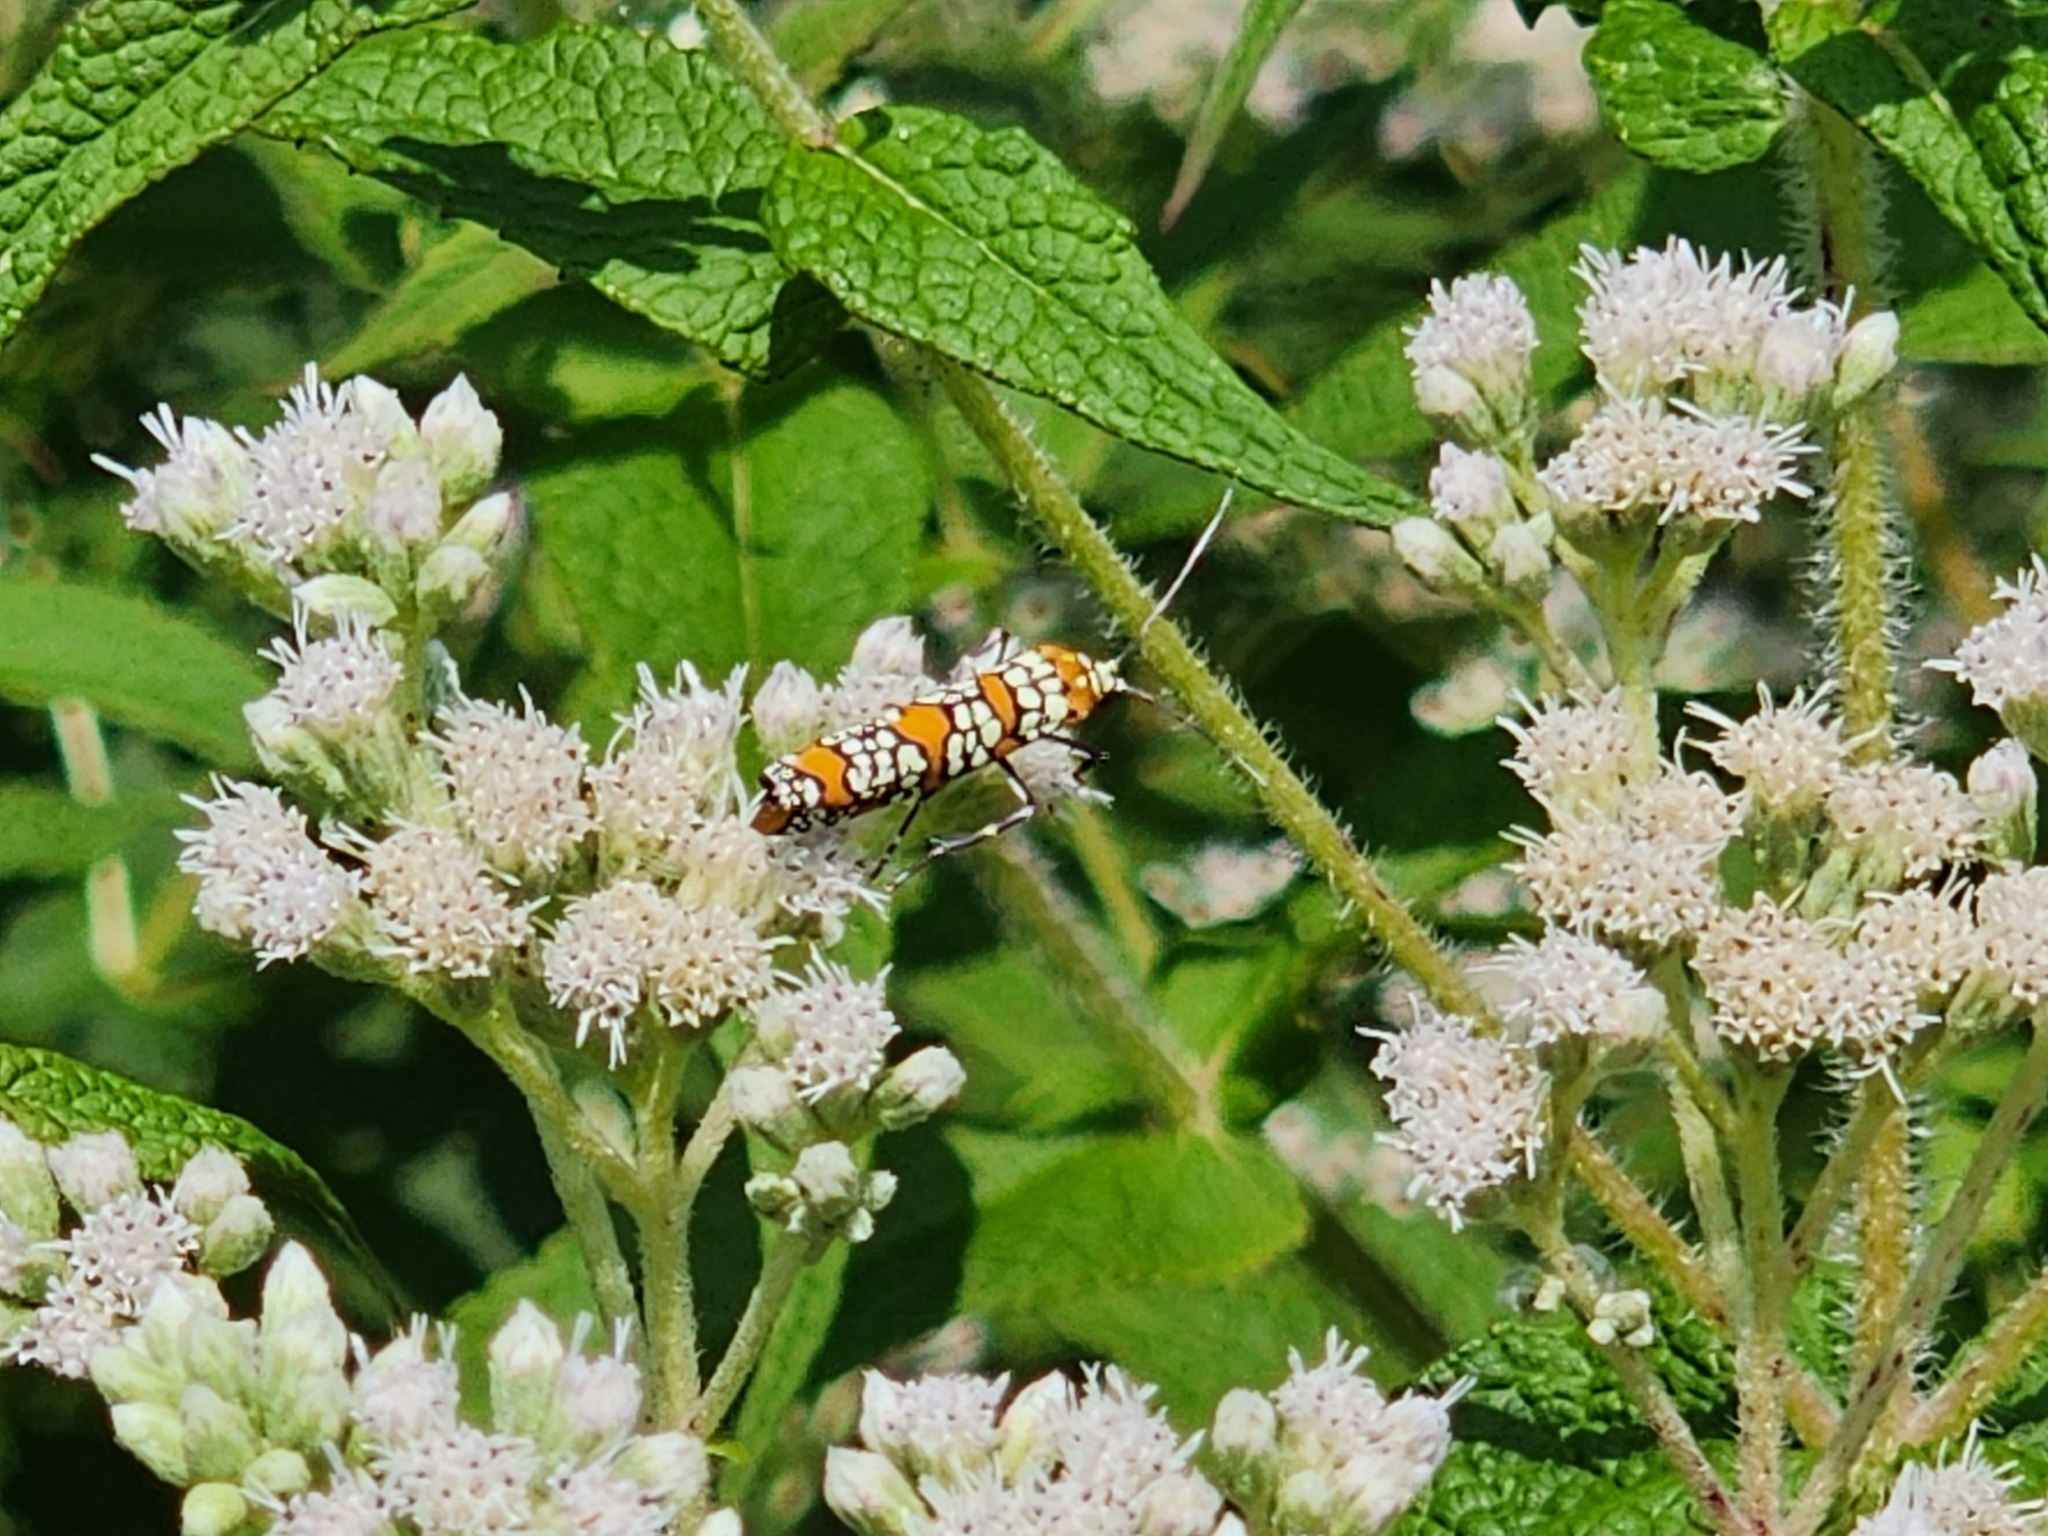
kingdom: Animalia
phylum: Arthropoda
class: Insecta
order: Lepidoptera
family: Attevidae
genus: Atteva
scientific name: Atteva punctella
